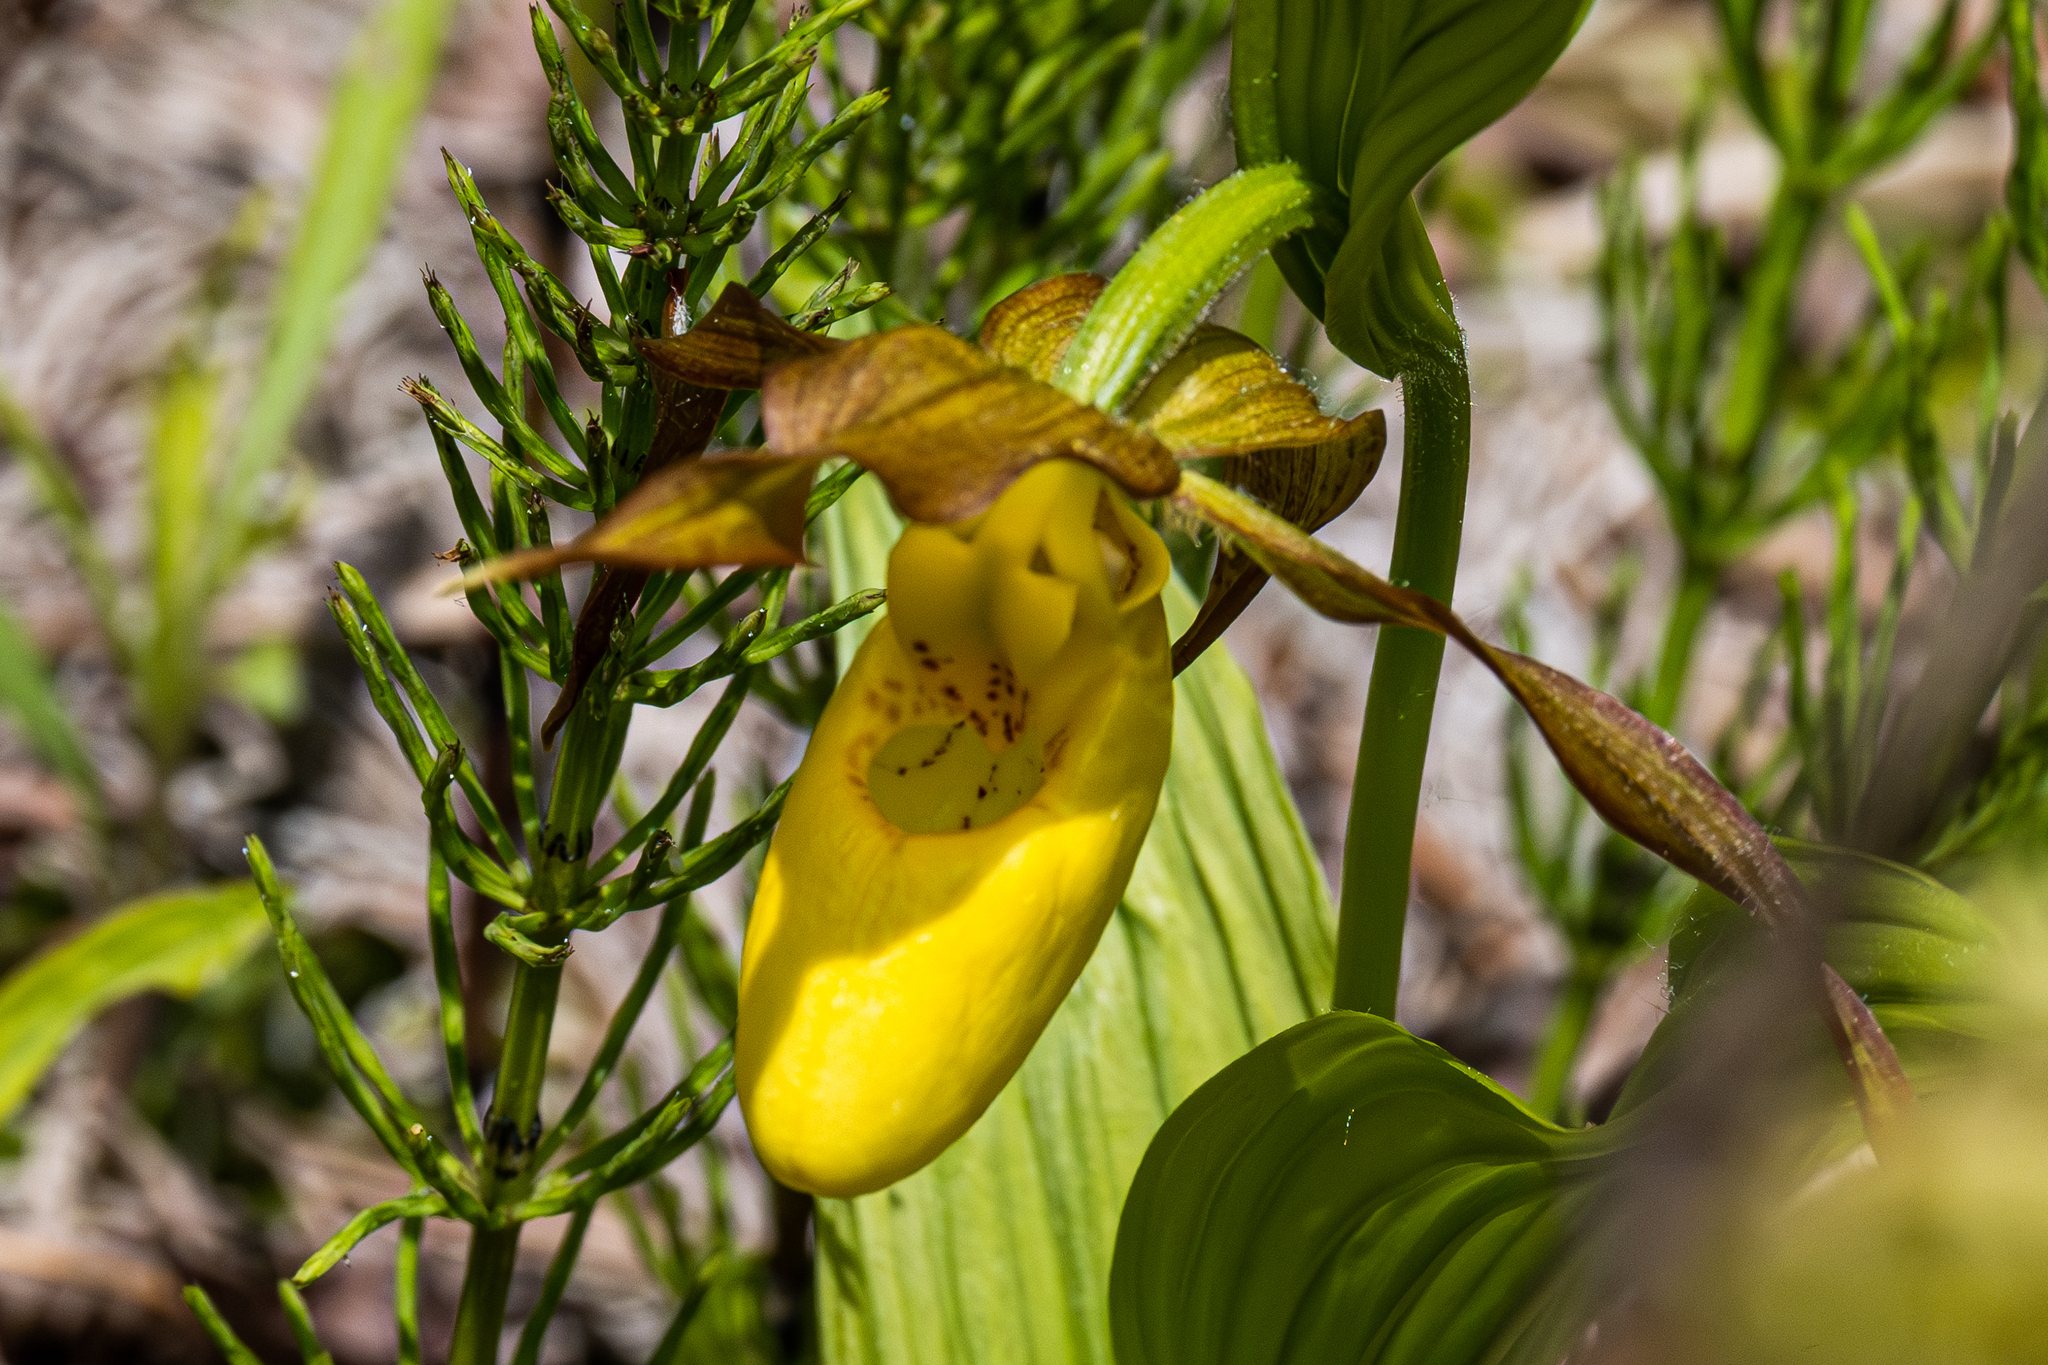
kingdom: Plantae
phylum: Tracheophyta
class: Liliopsida
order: Asparagales
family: Orchidaceae
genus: Cypripedium
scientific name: Cypripedium parviflorum
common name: American yellow lady's-slipper
